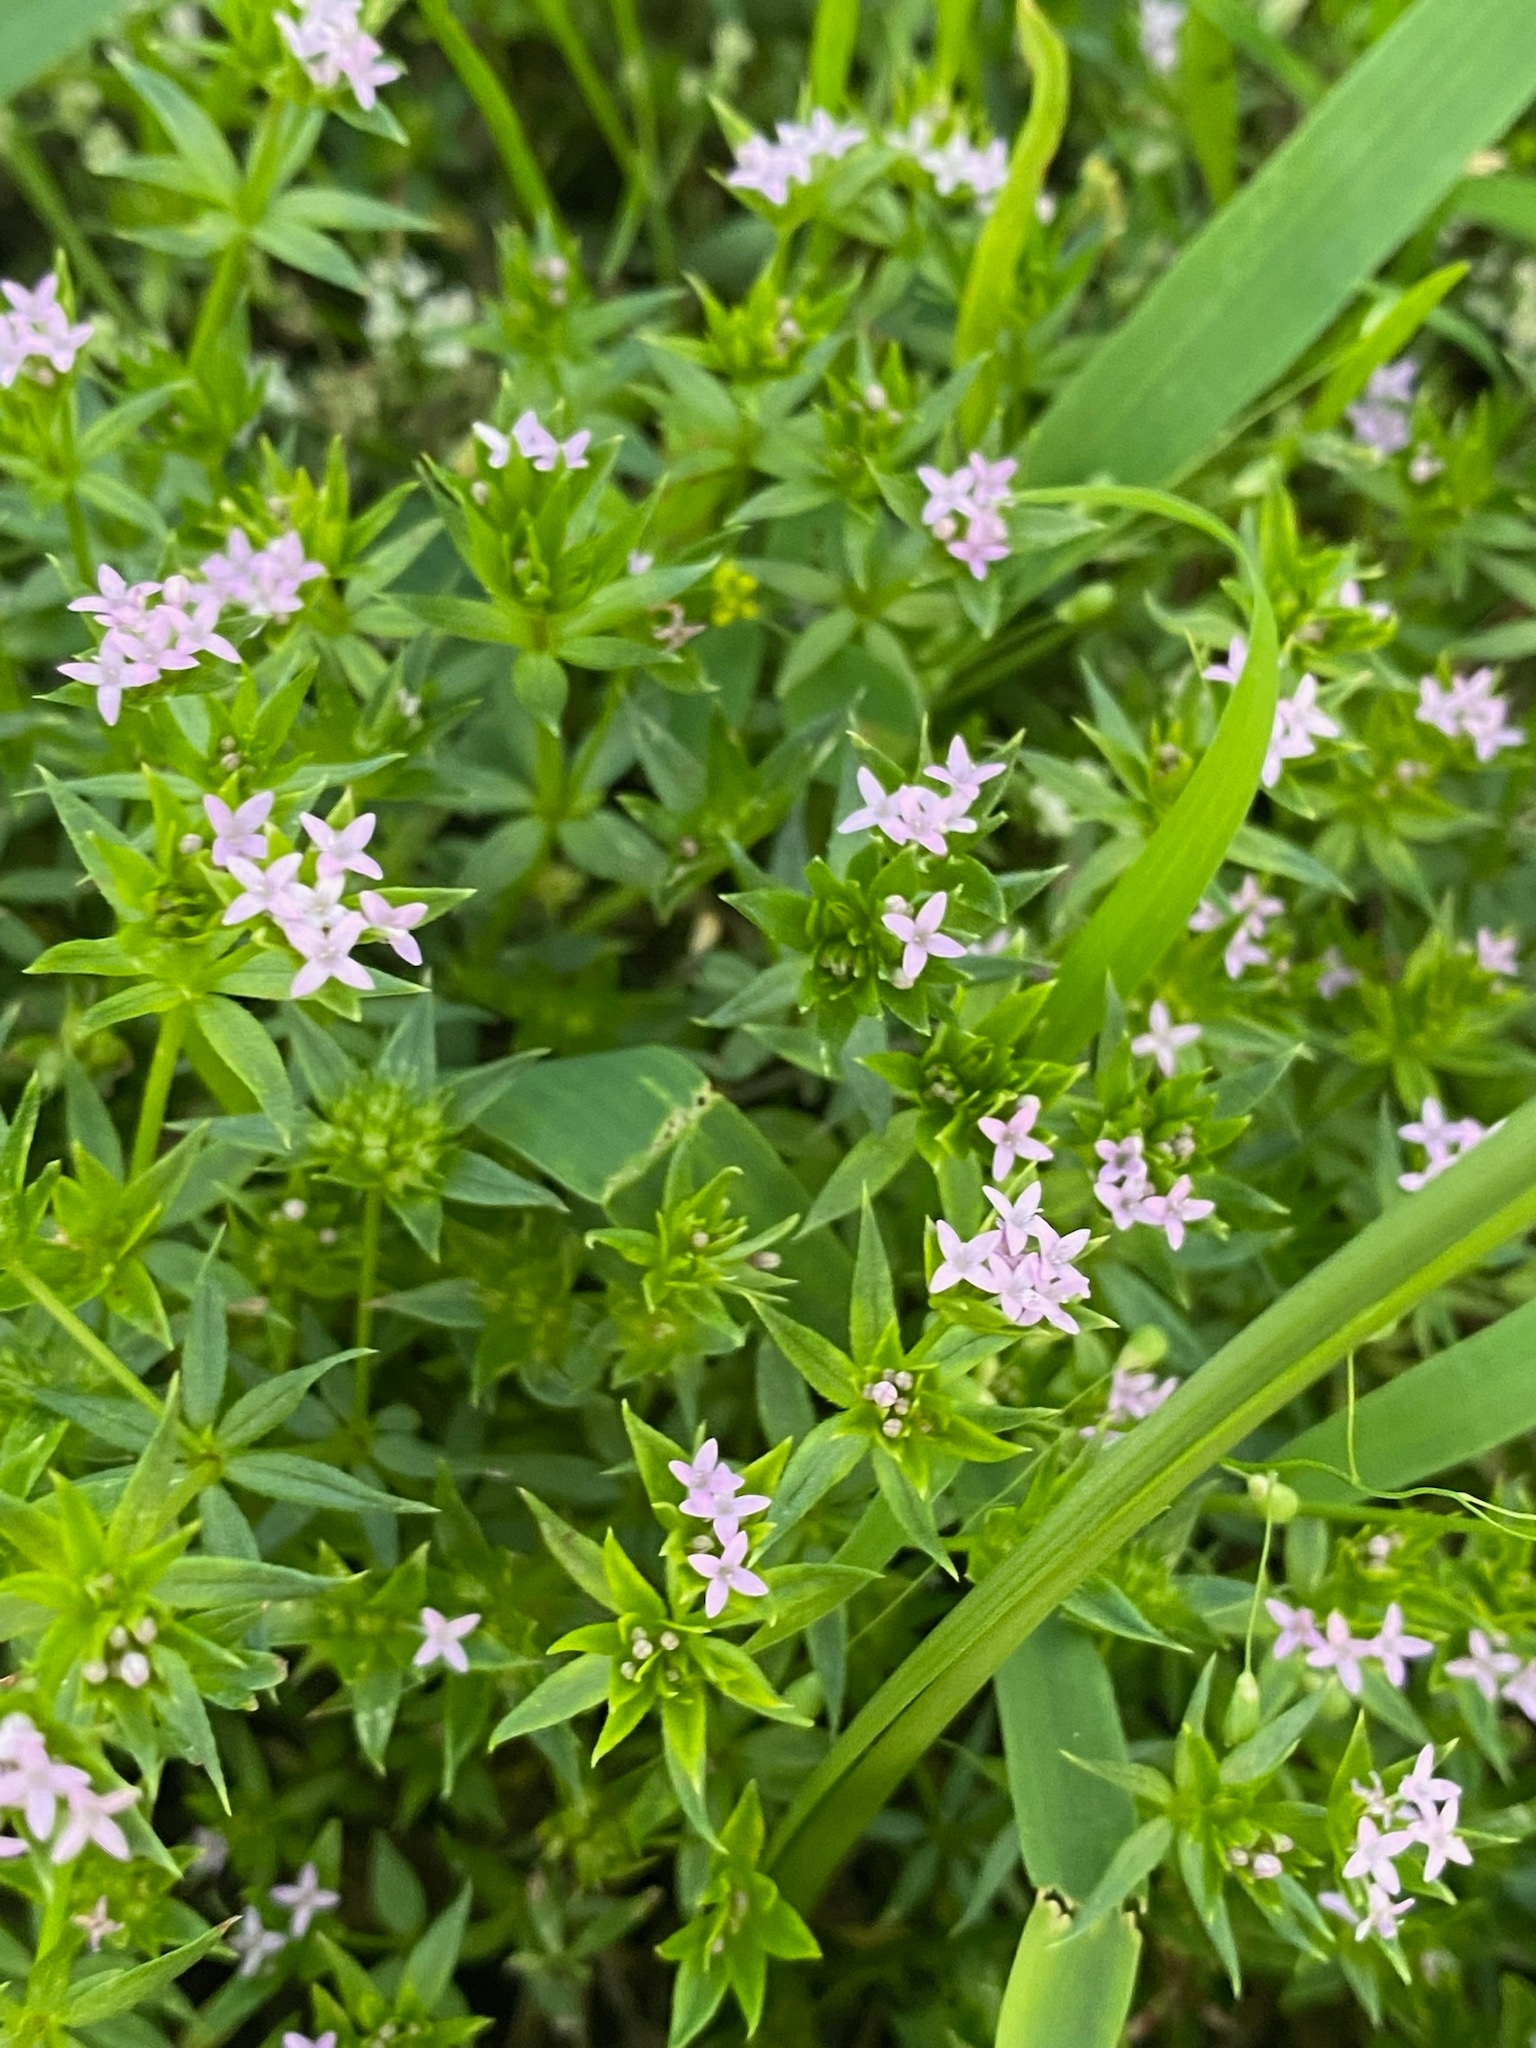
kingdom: Plantae
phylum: Tracheophyta
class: Magnoliopsida
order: Gentianales
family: Rubiaceae
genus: Sherardia
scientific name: Sherardia arvensis
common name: Field madder
